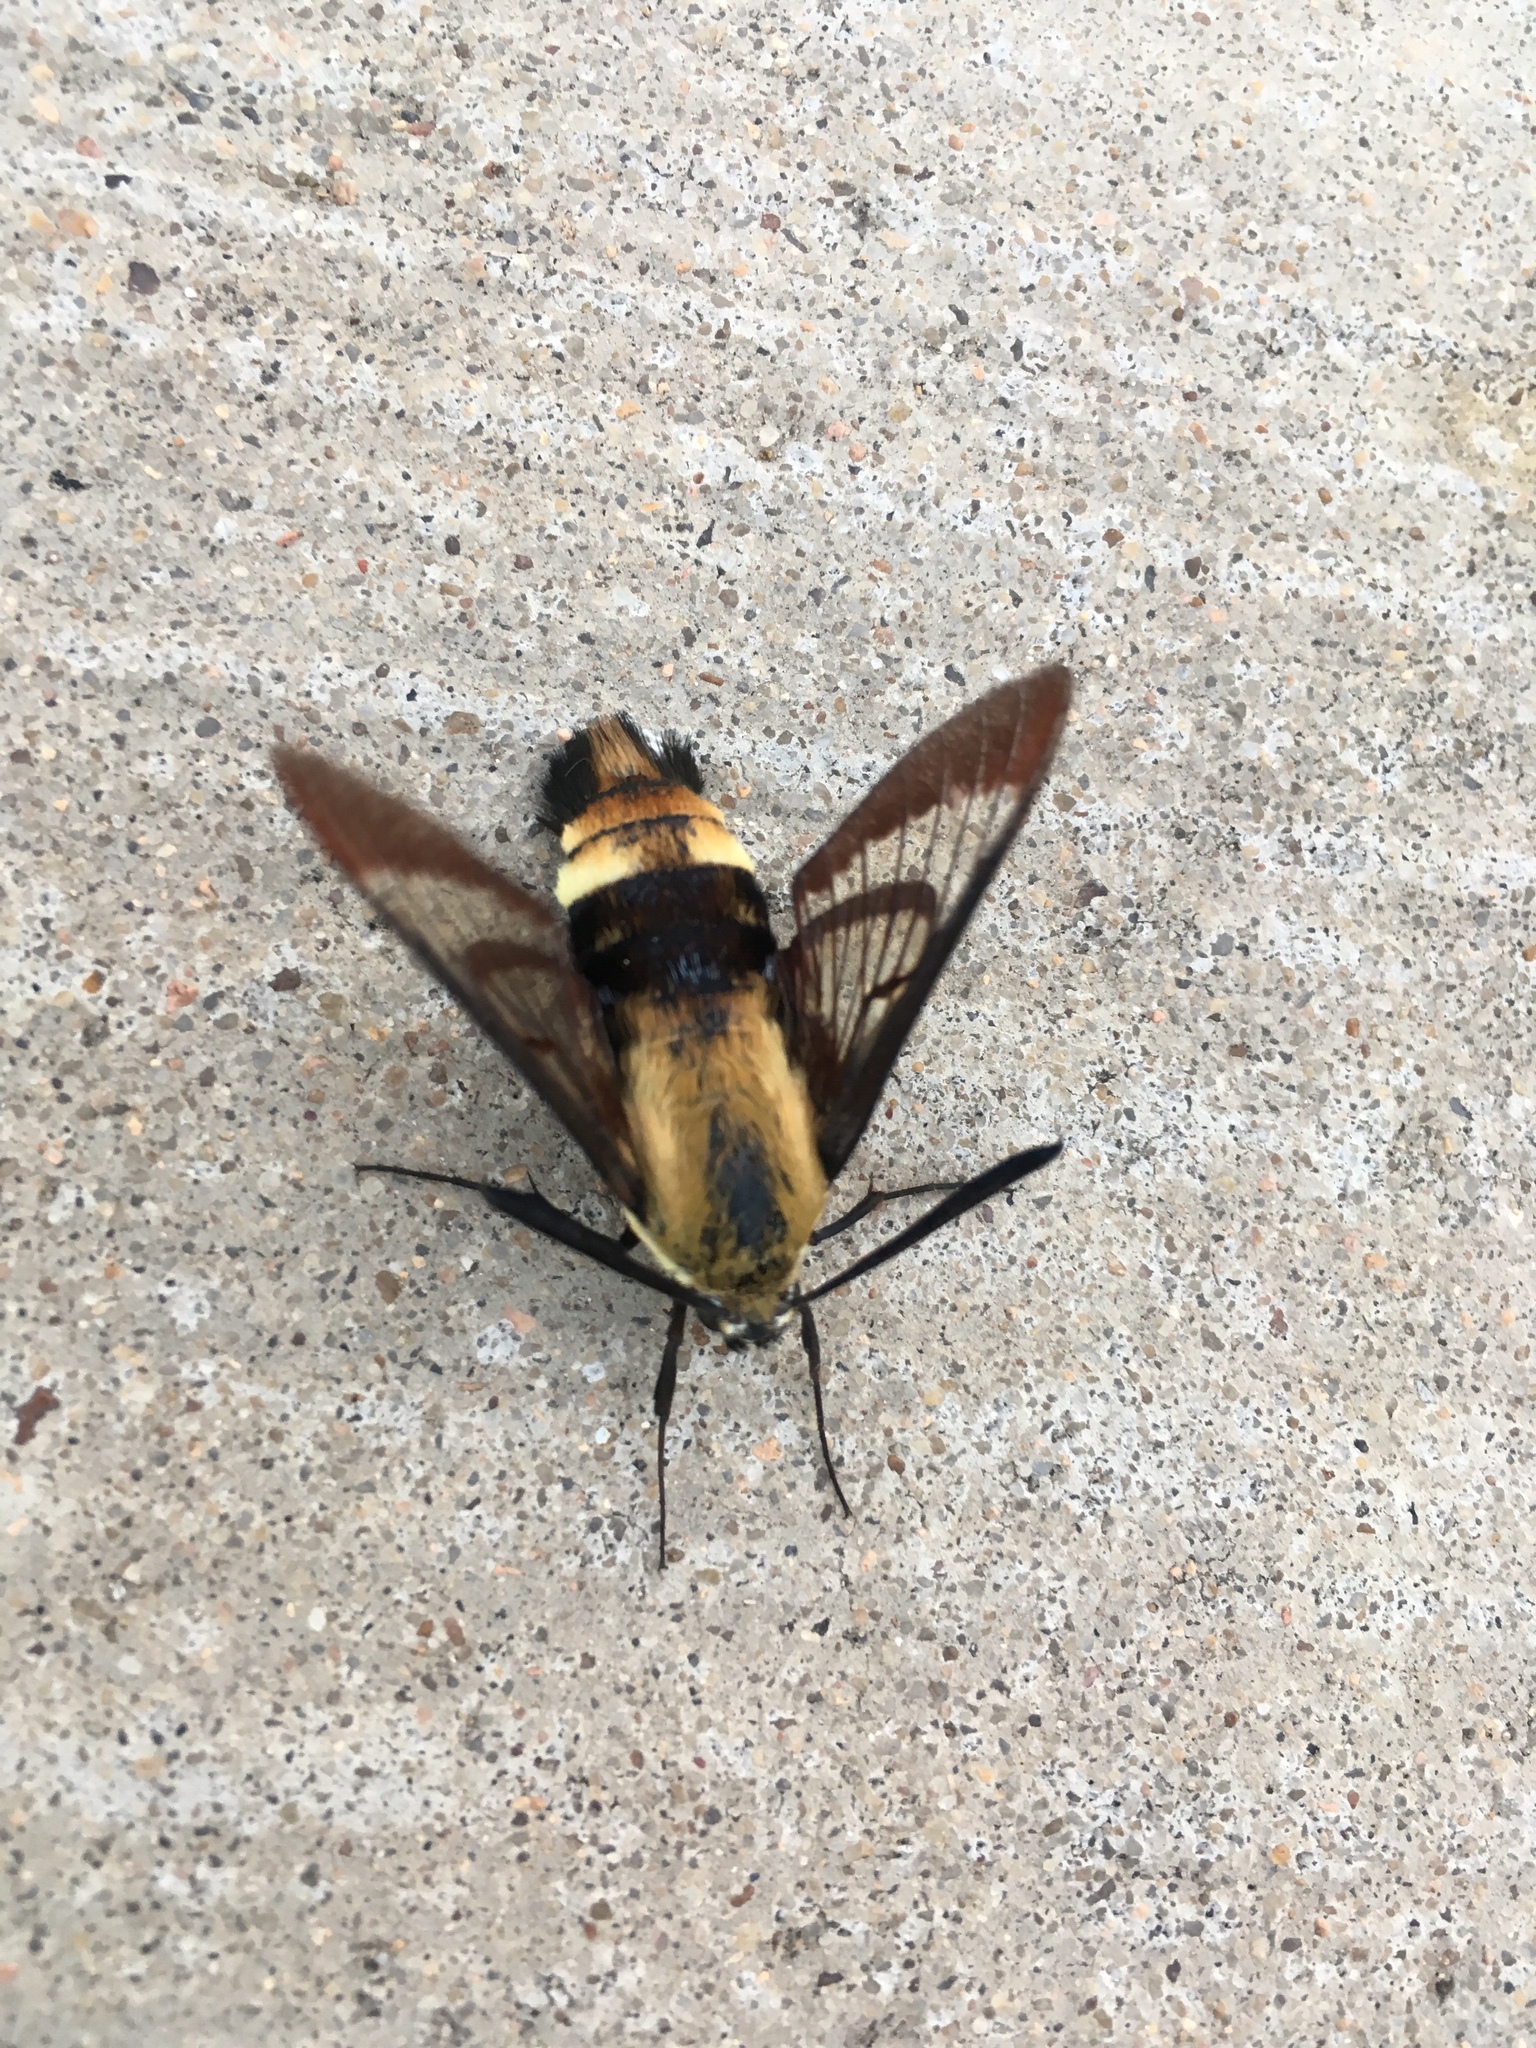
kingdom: Animalia
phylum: Arthropoda
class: Insecta
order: Lepidoptera
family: Sphingidae
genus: Hemaris
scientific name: Hemaris diffinis
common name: Bumblebee moth
